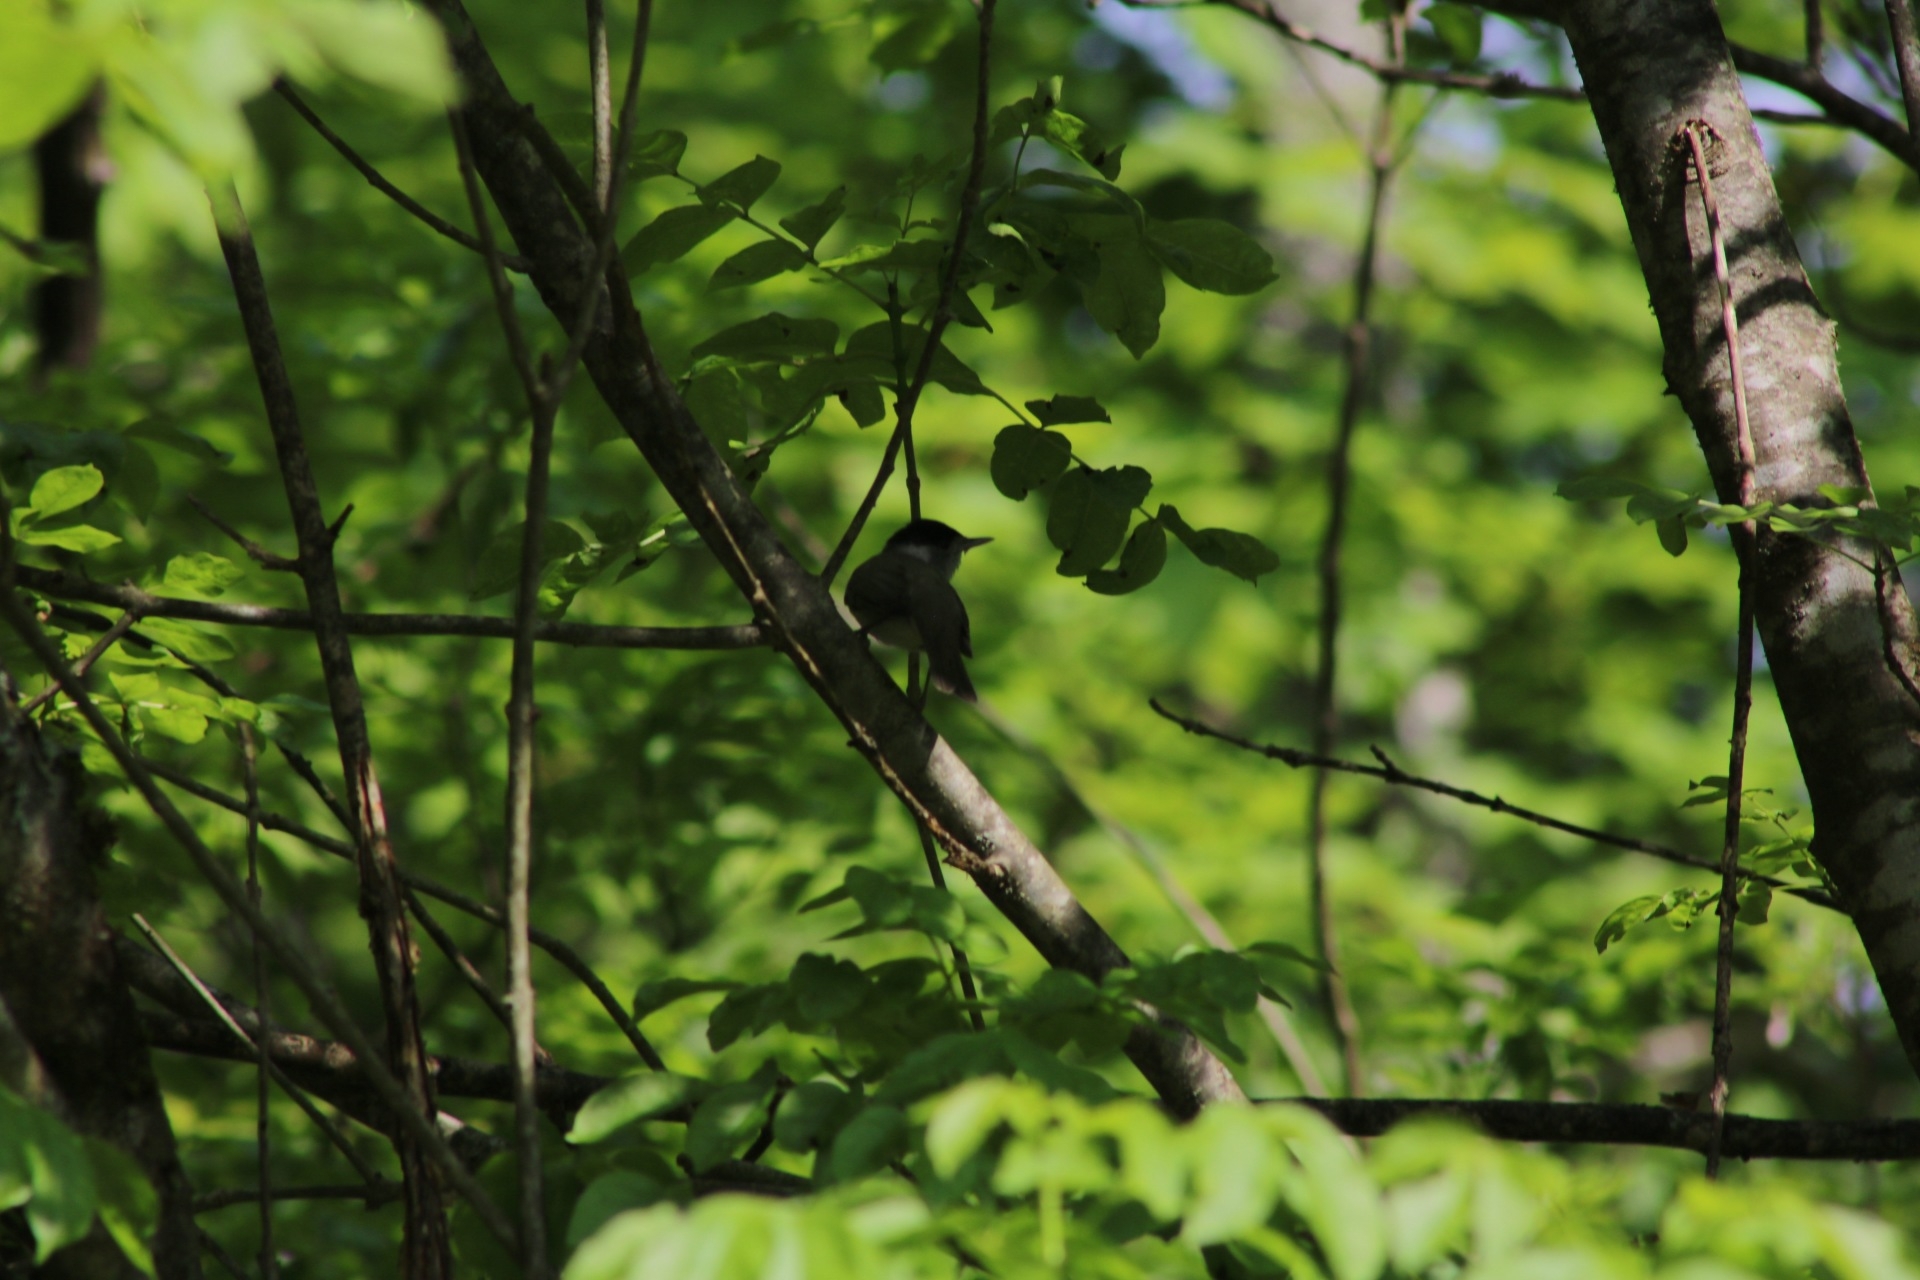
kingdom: Animalia
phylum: Chordata
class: Aves
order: Passeriformes
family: Sylviidae
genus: Sylvia
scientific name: Sylvia atricapilla
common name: Eurasian blackcap
